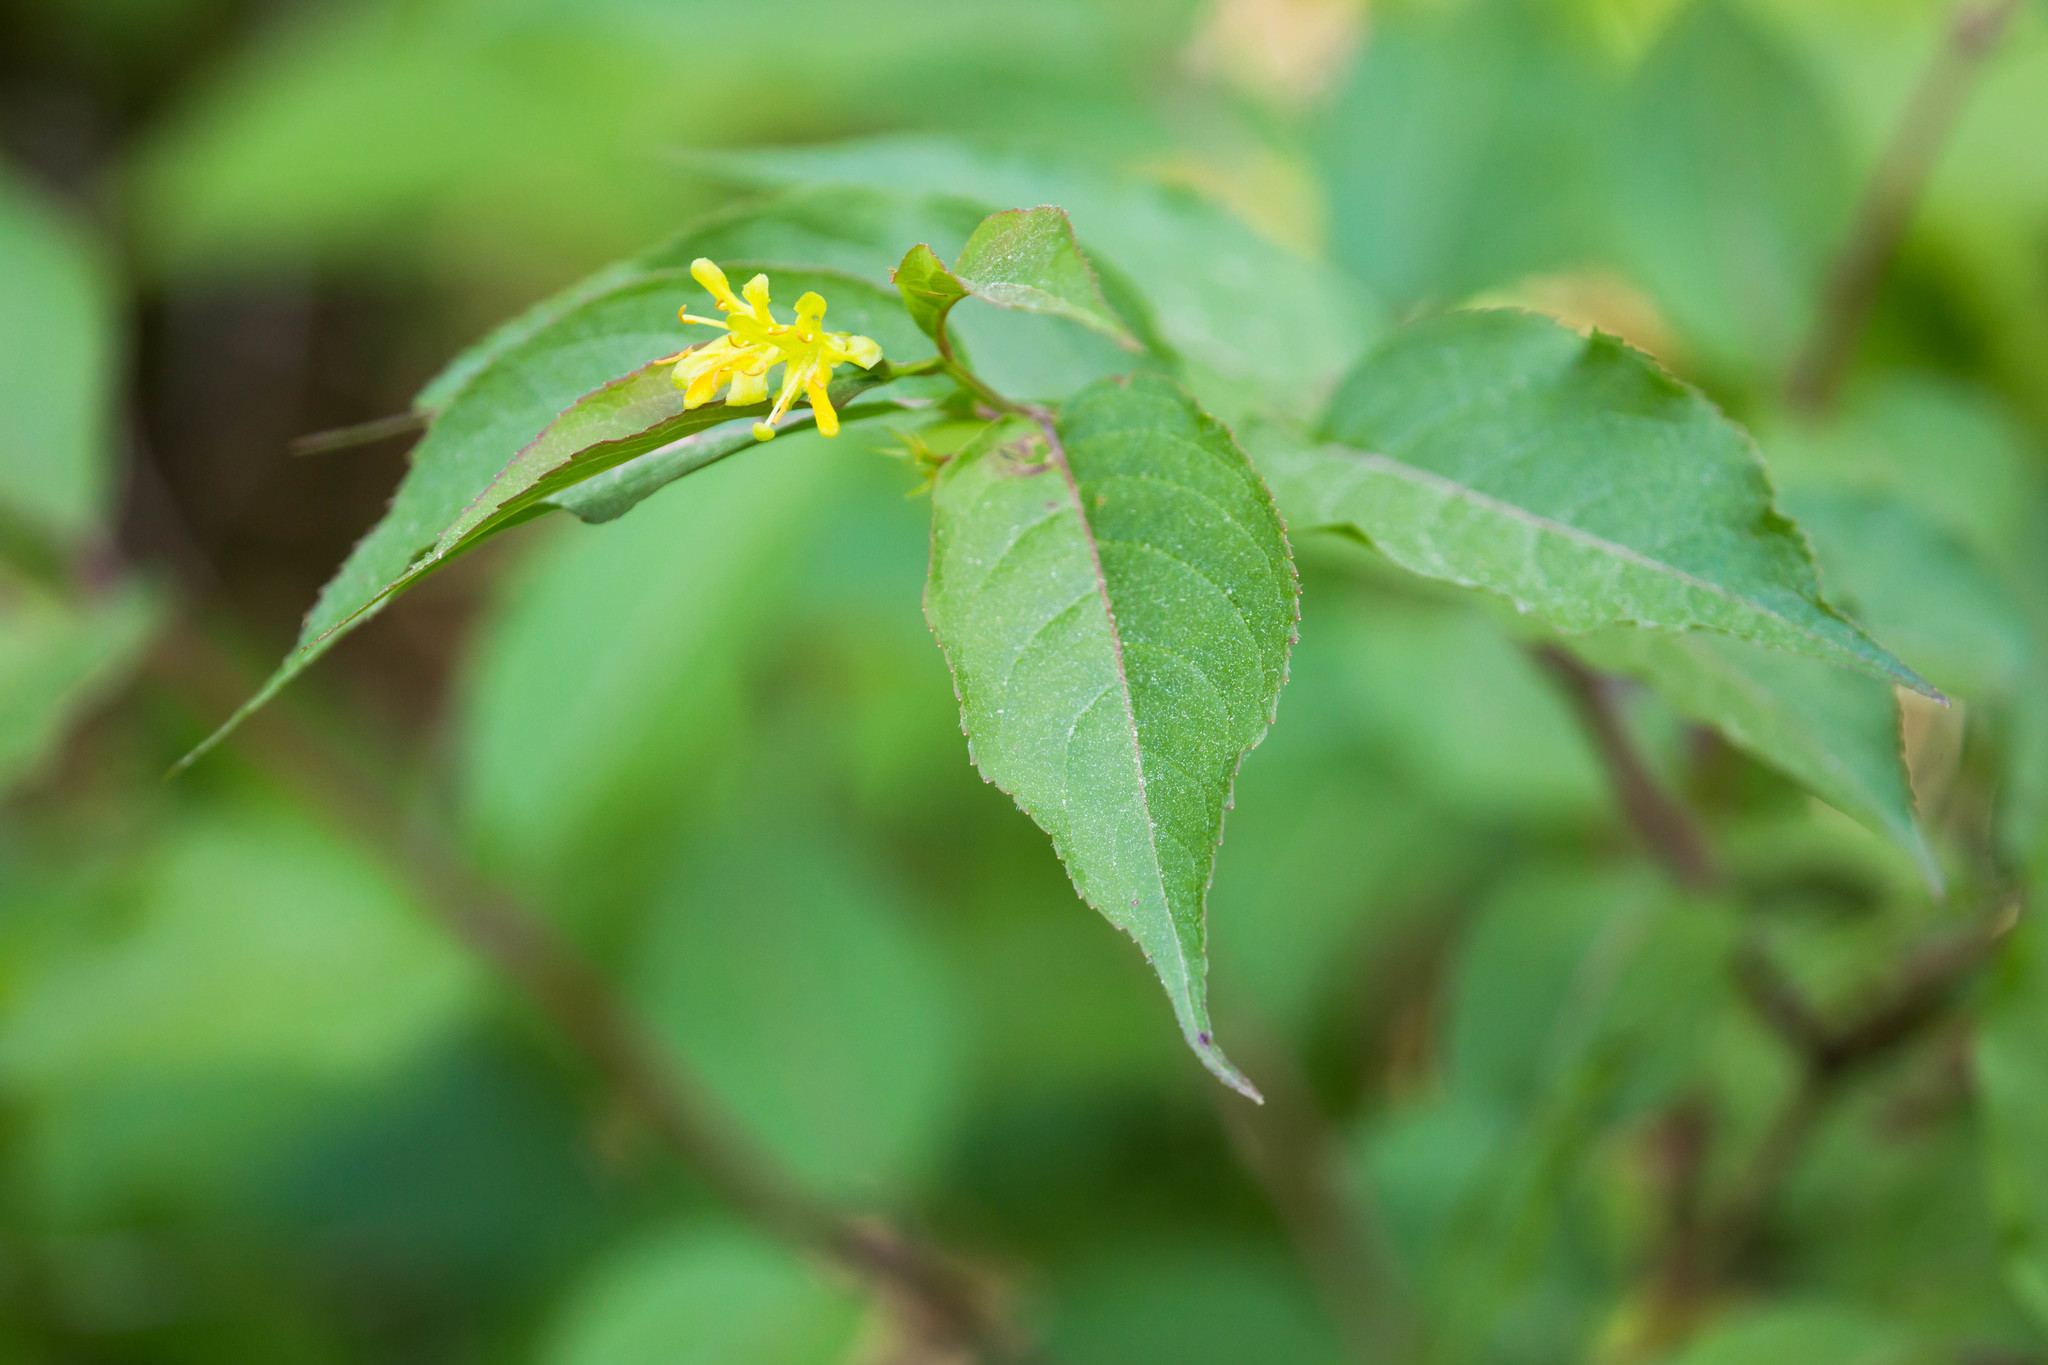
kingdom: Plantae
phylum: Tracheophyta
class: Magnoliopsida
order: Dipsacales
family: Caprifoliaceae
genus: Diervilla
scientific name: Diervilla lonicera
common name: Bush-honeysuckle
